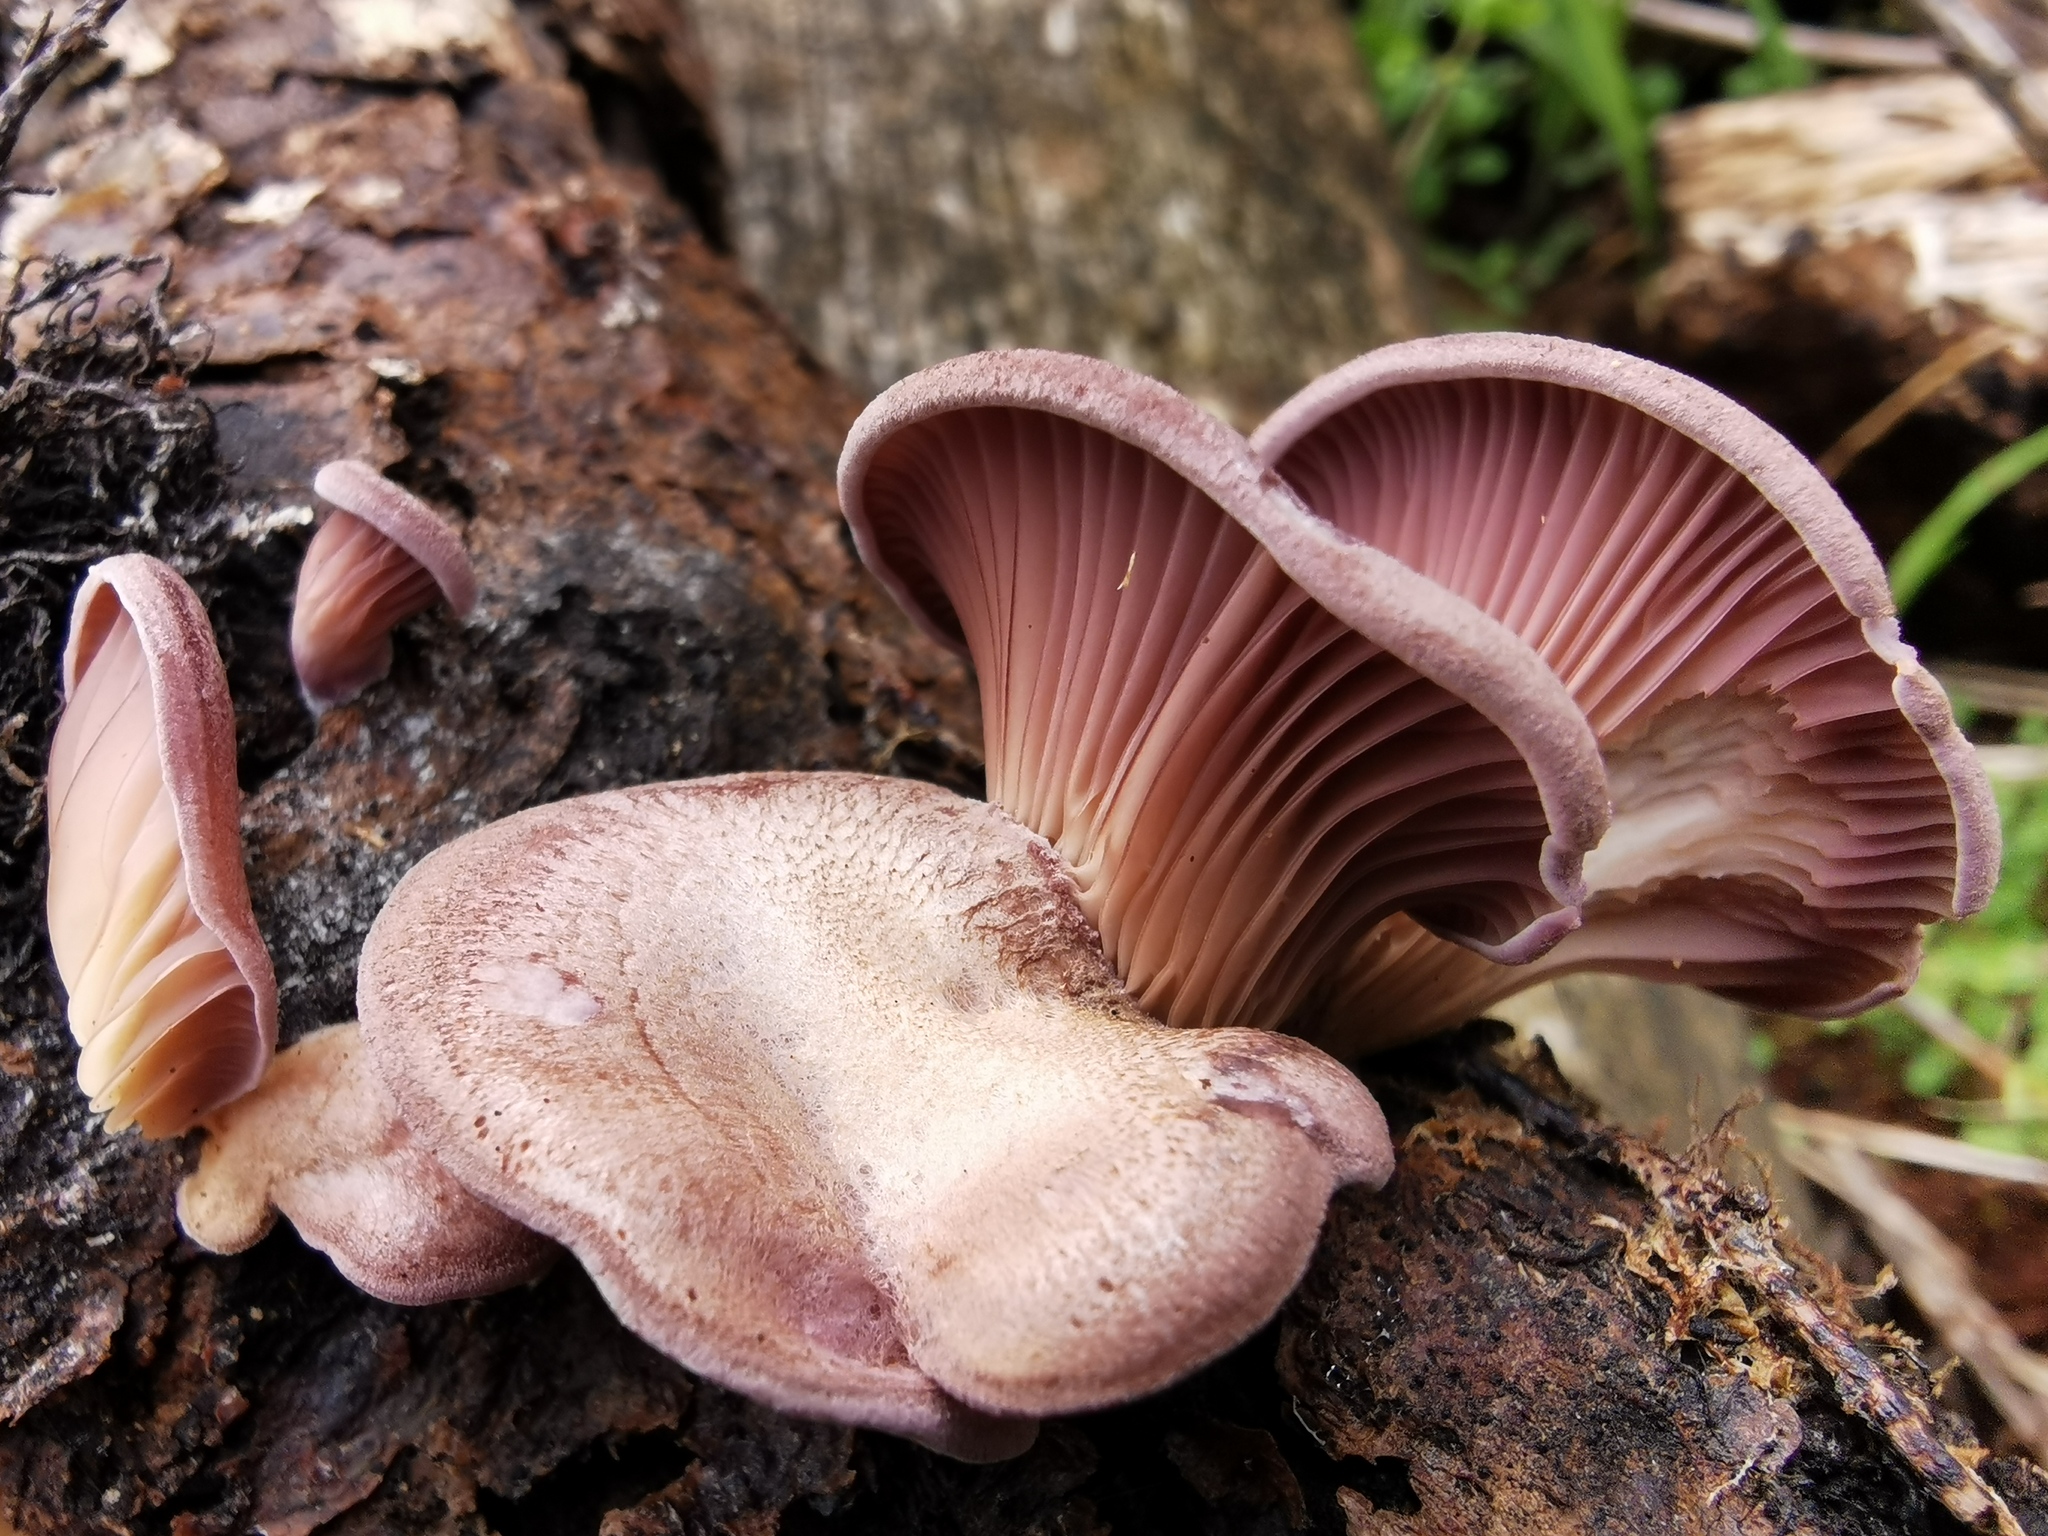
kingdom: Fungi
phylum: Basidiomycota
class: Agaricomycetes
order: Polyporales
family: Panaceae
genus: Panus
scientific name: Panus purpuratus
